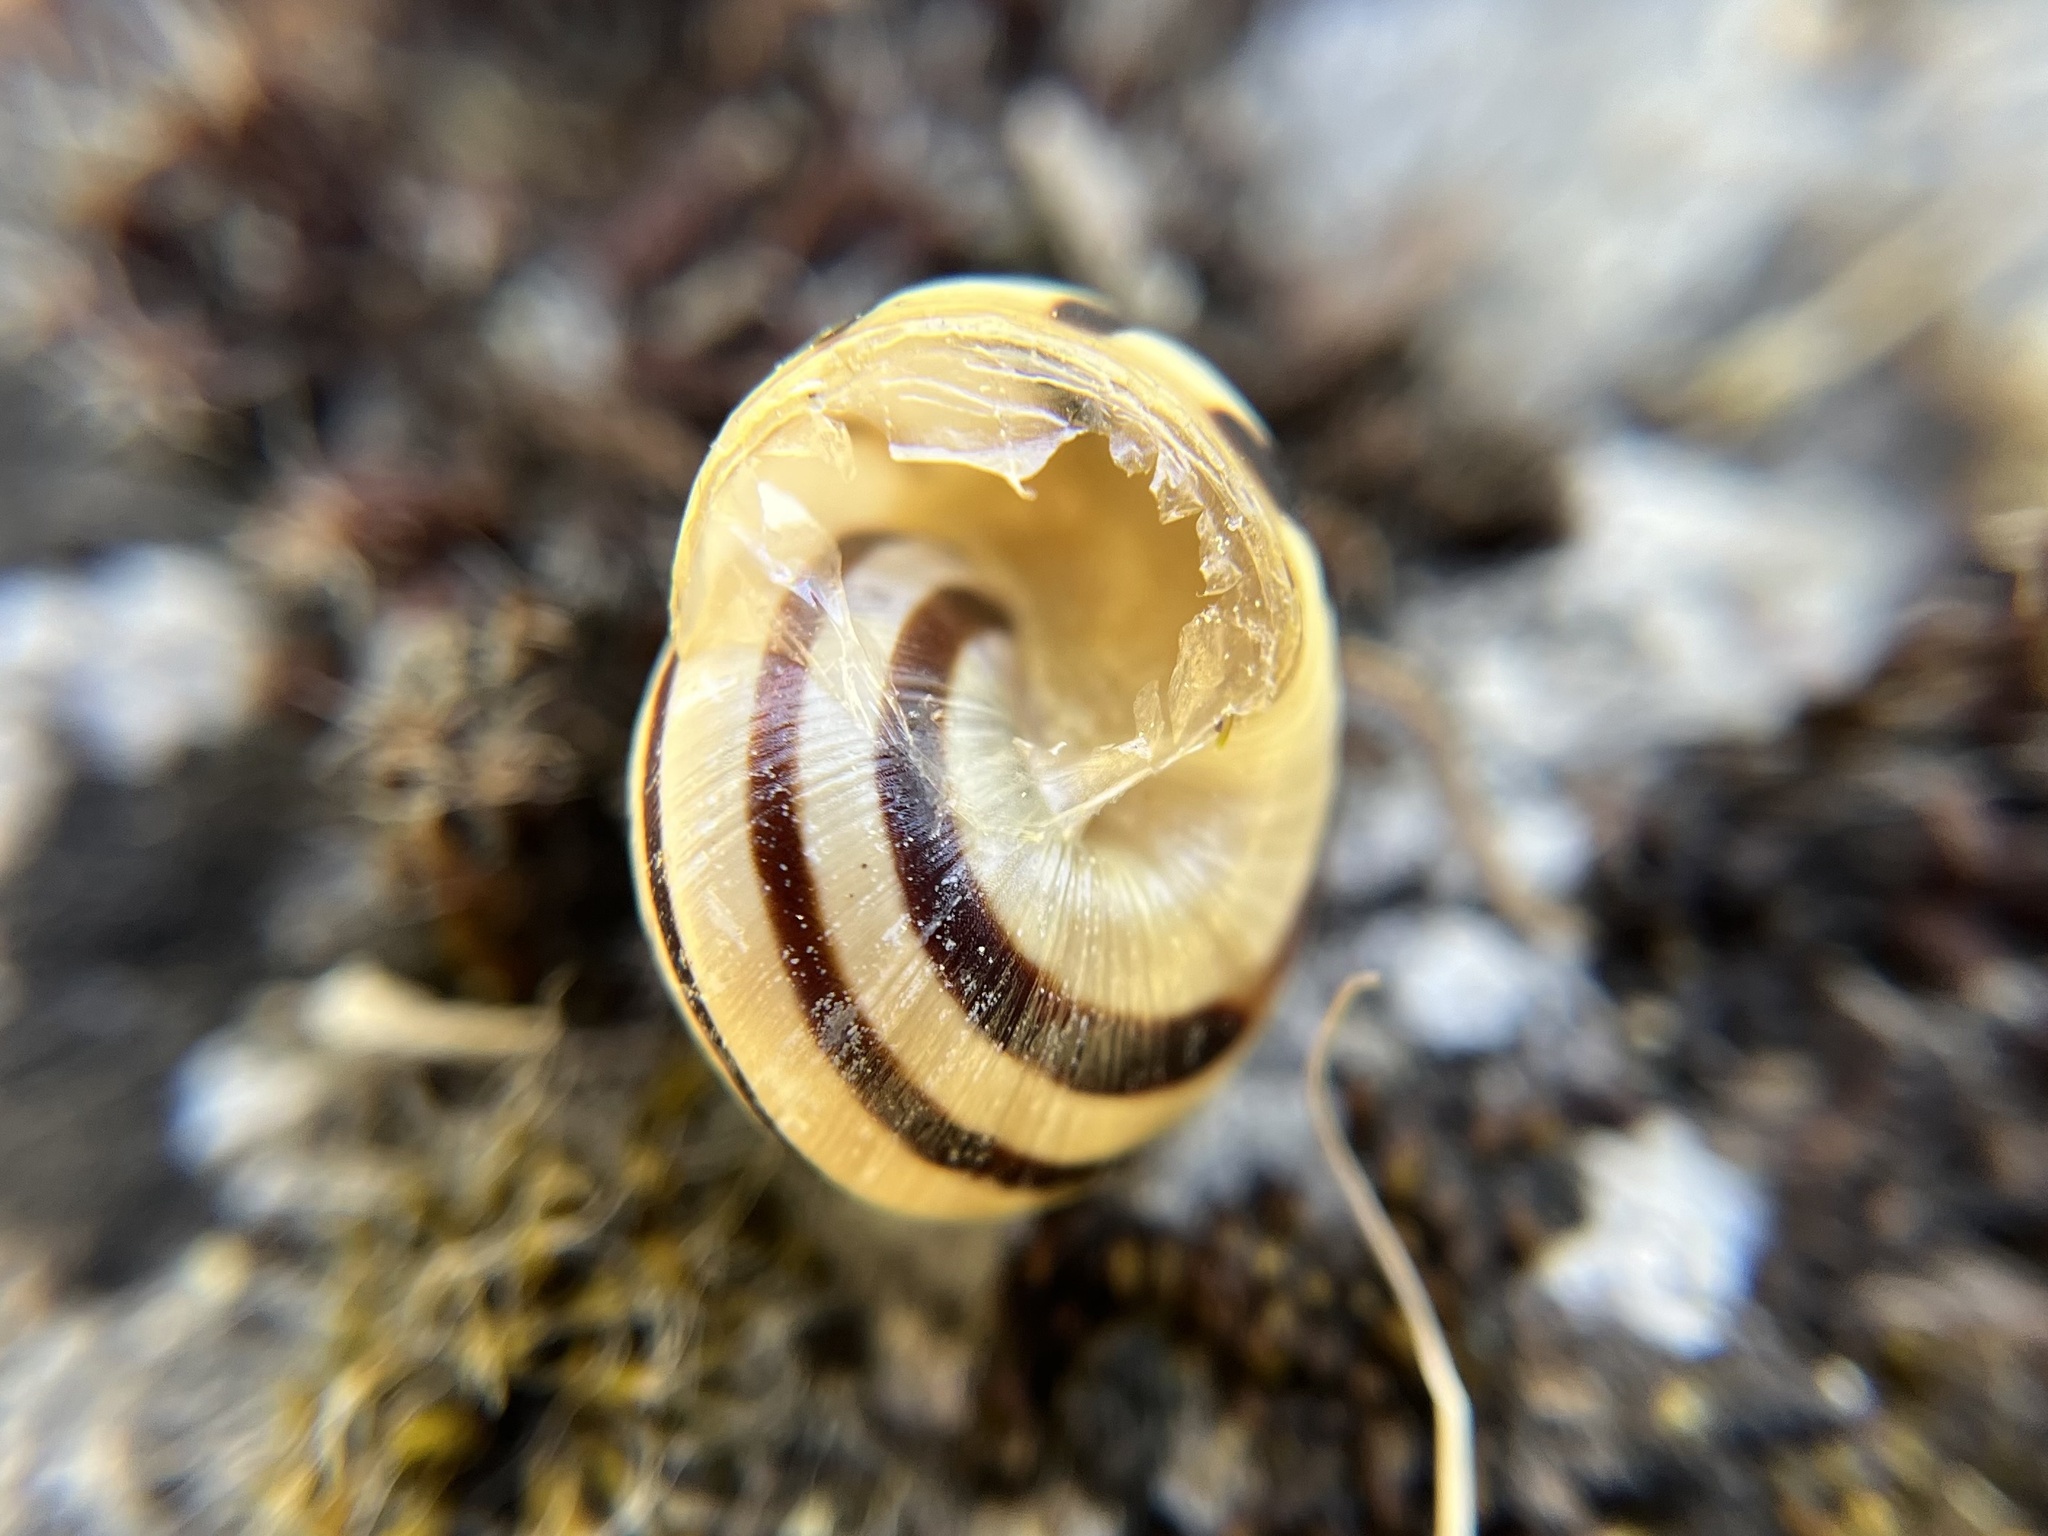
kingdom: Animalia
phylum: Mollusca
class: Gastropoda
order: Stylommatophora
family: Helicidae
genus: Caucasotachea
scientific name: Caucasotachea vindobonensis
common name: European helicid land snail
